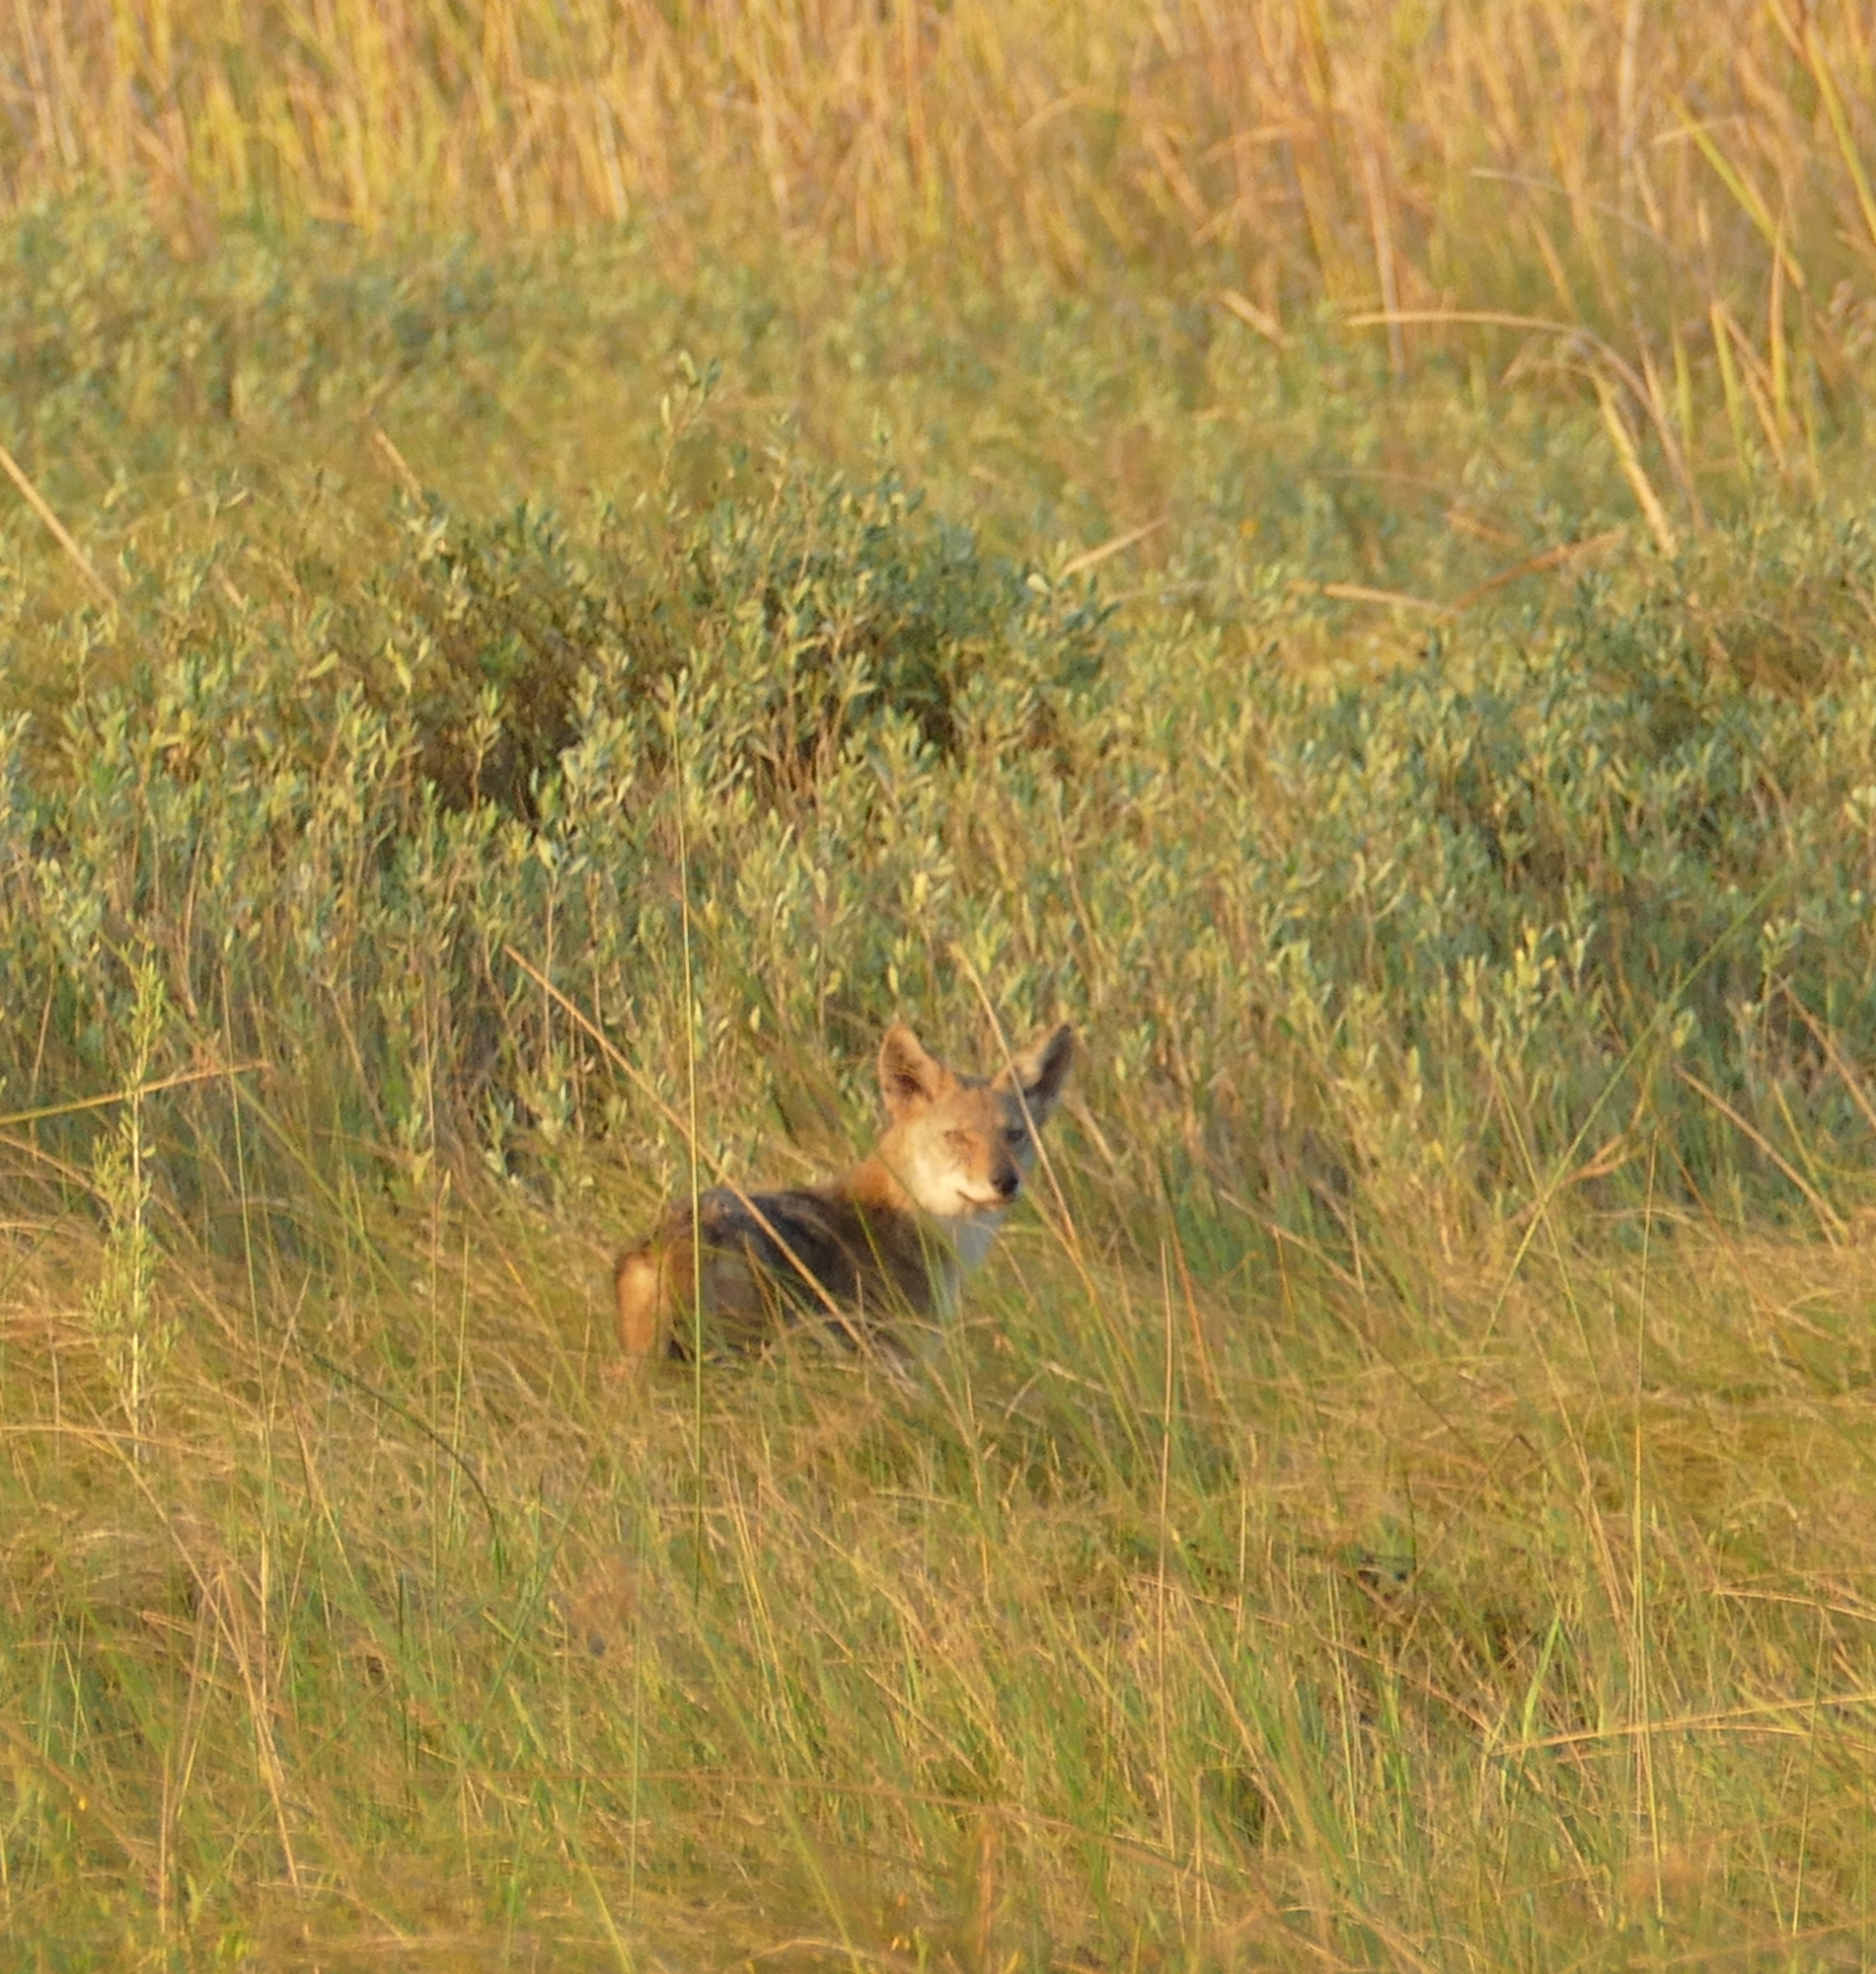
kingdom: Animalia
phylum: Chordata
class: Mammalia
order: Carnivora
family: Canidae
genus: Canis
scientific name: Canis latrans
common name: Coyote
